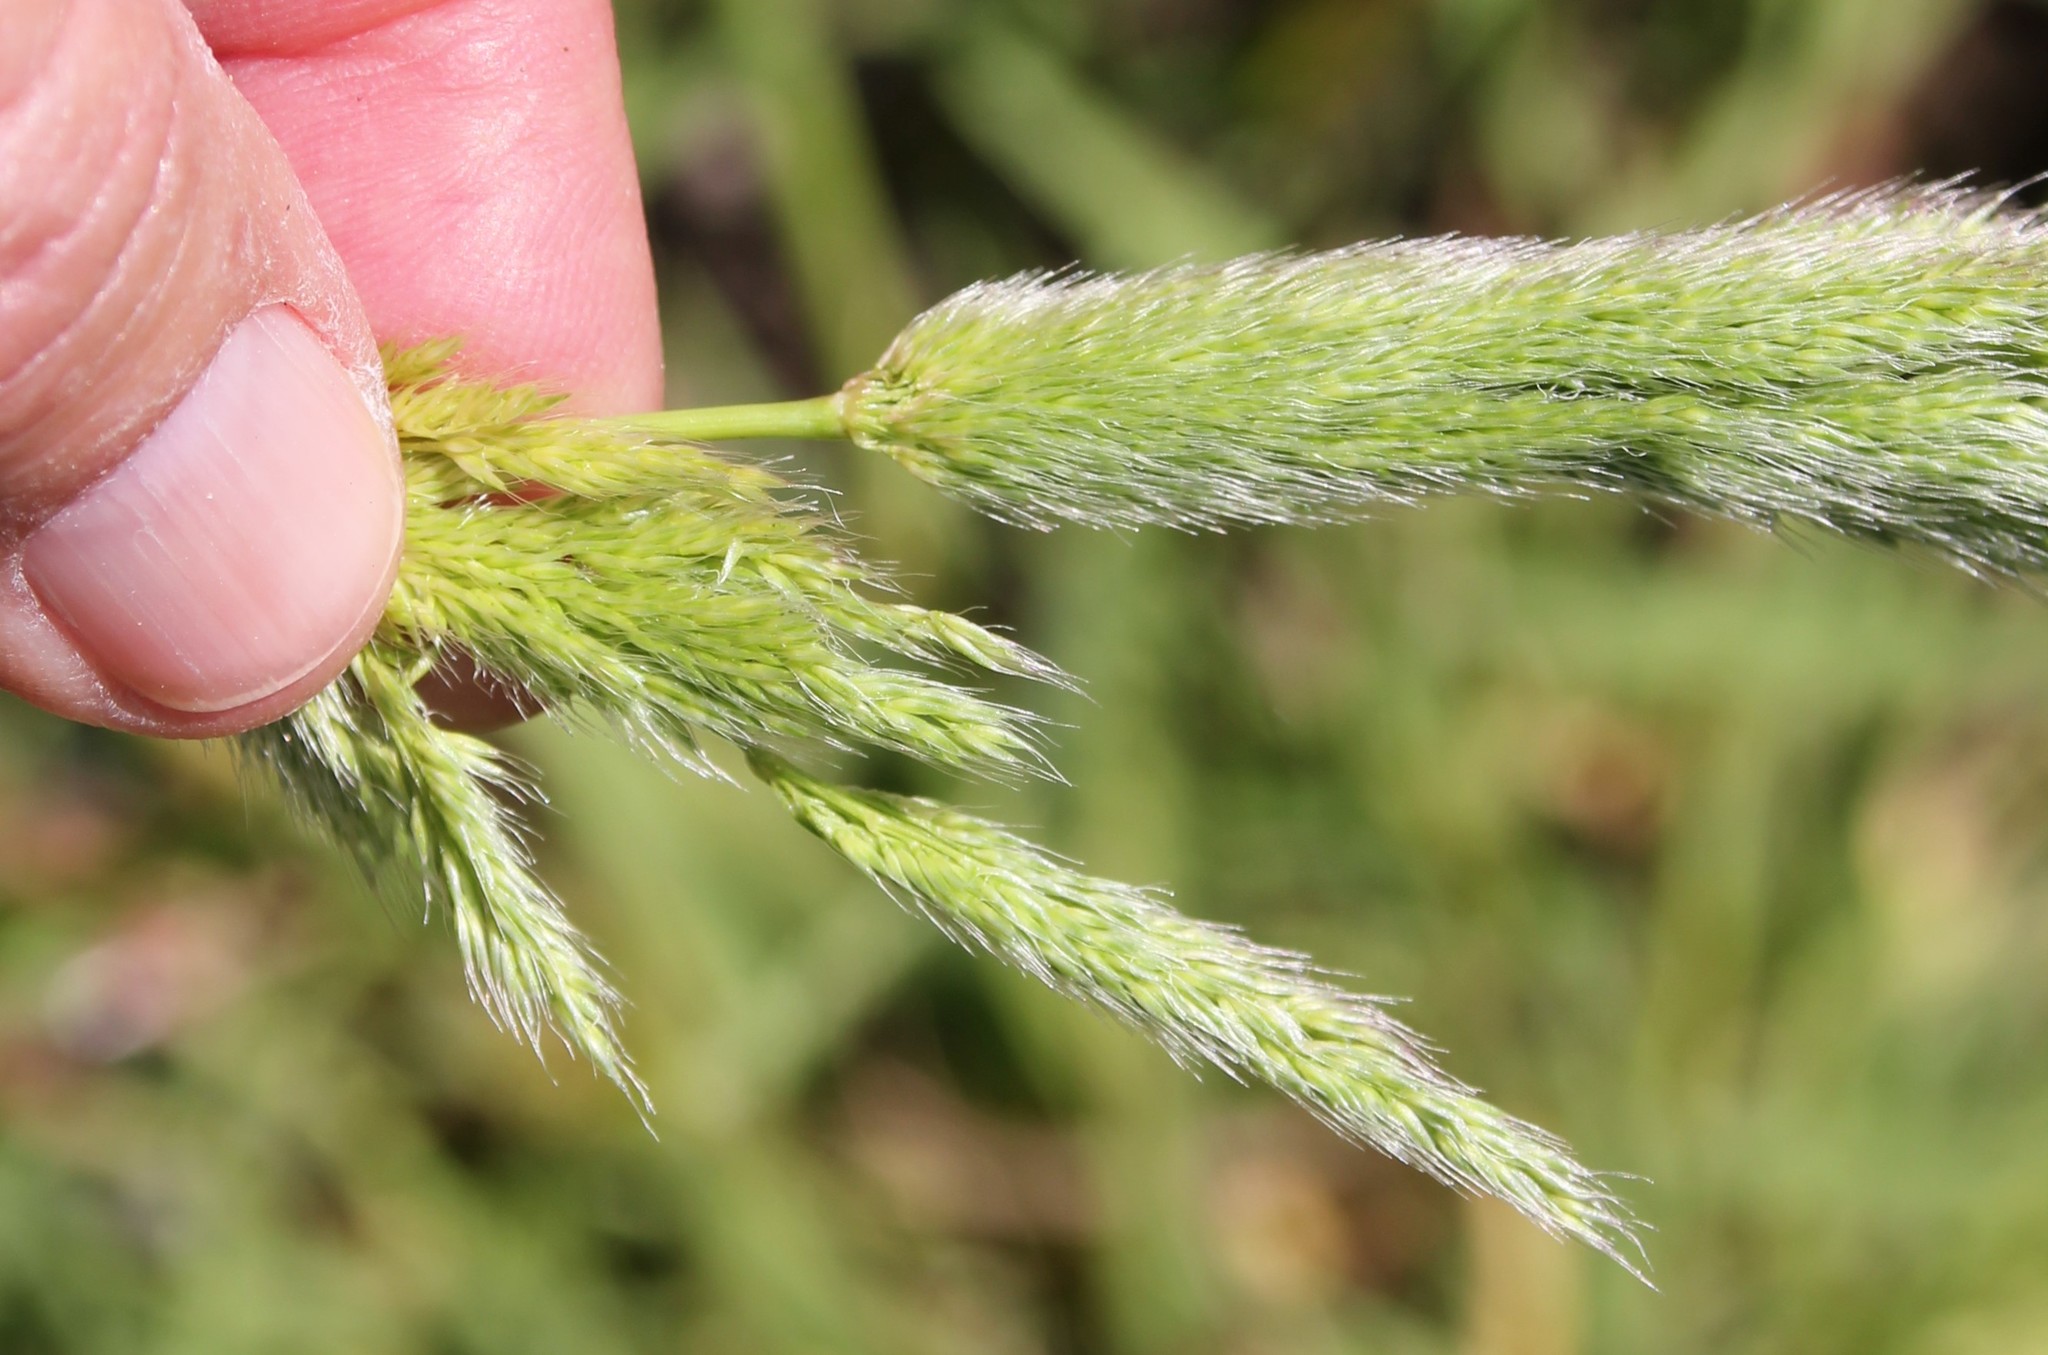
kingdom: Plantae
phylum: Tracheophyta
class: Liliopsida
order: Poales
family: Poaceae
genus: Polypogon
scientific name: Polypogon interruptus
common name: Ditch polypogon
